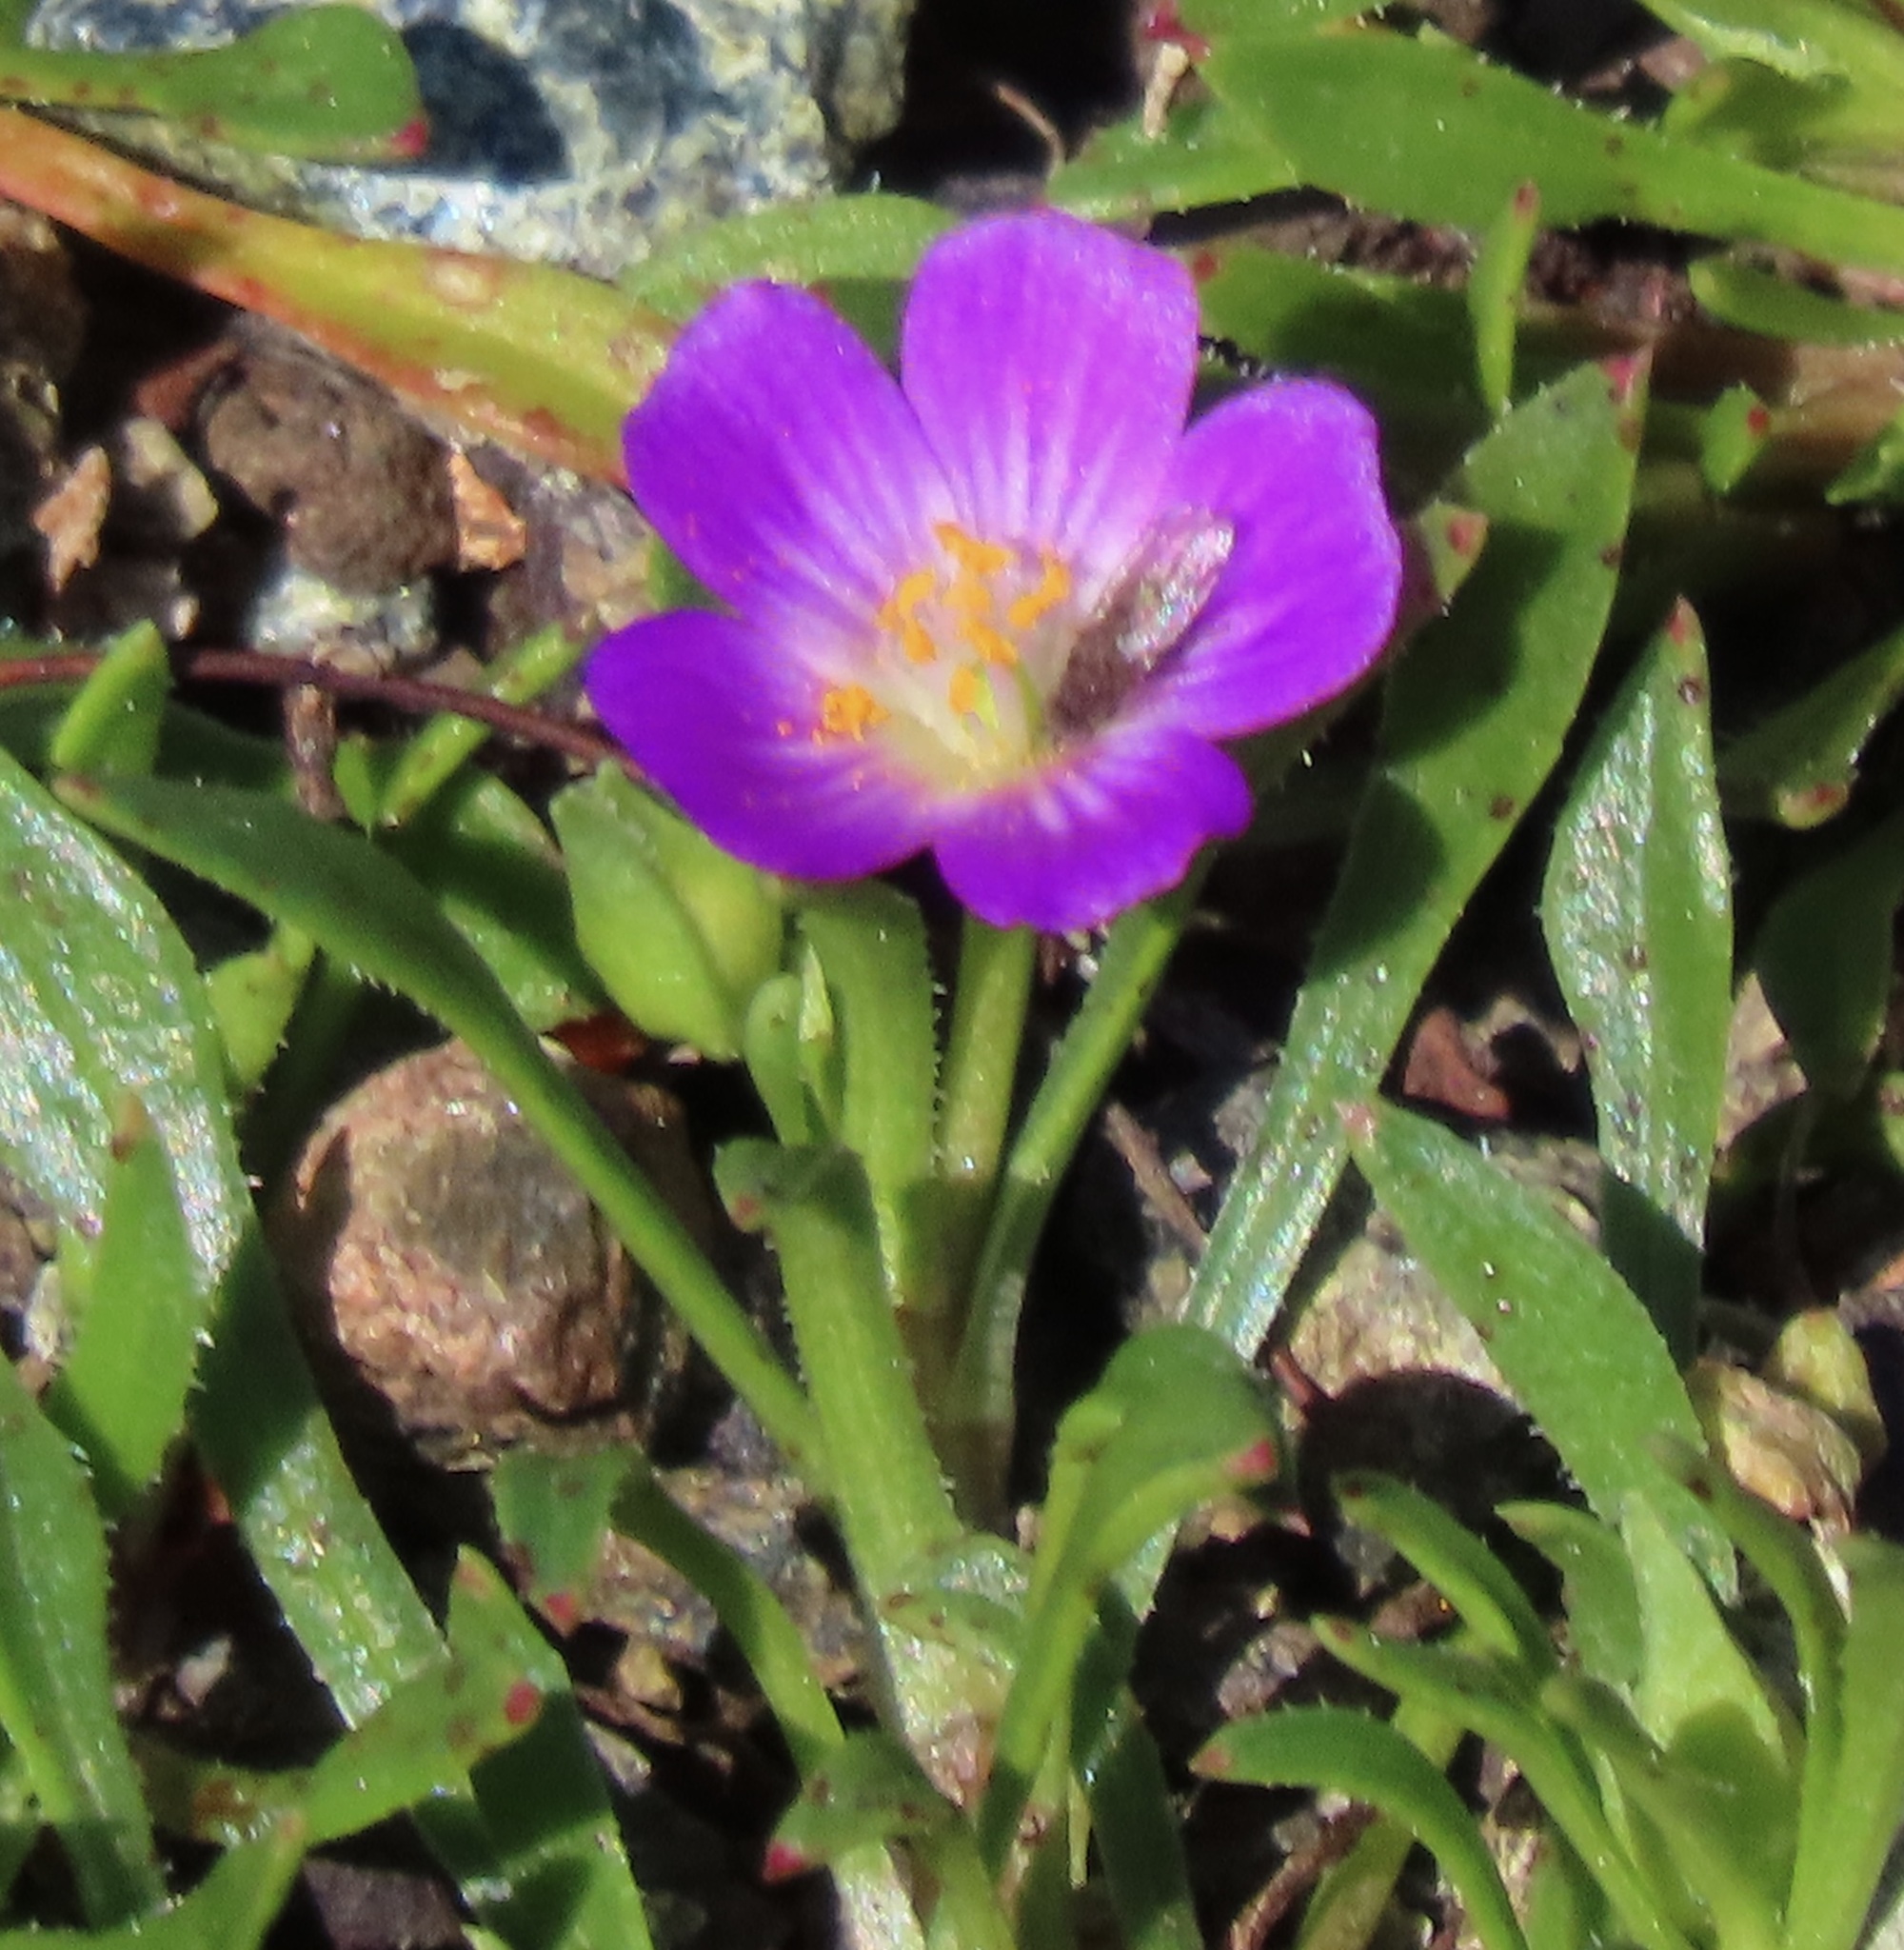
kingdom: Plantae
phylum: Tracheophyta
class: Magnoliopsida
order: Caryophyllales
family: Montiaceae
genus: Calandrinia
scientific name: Calandrinia menziesii
